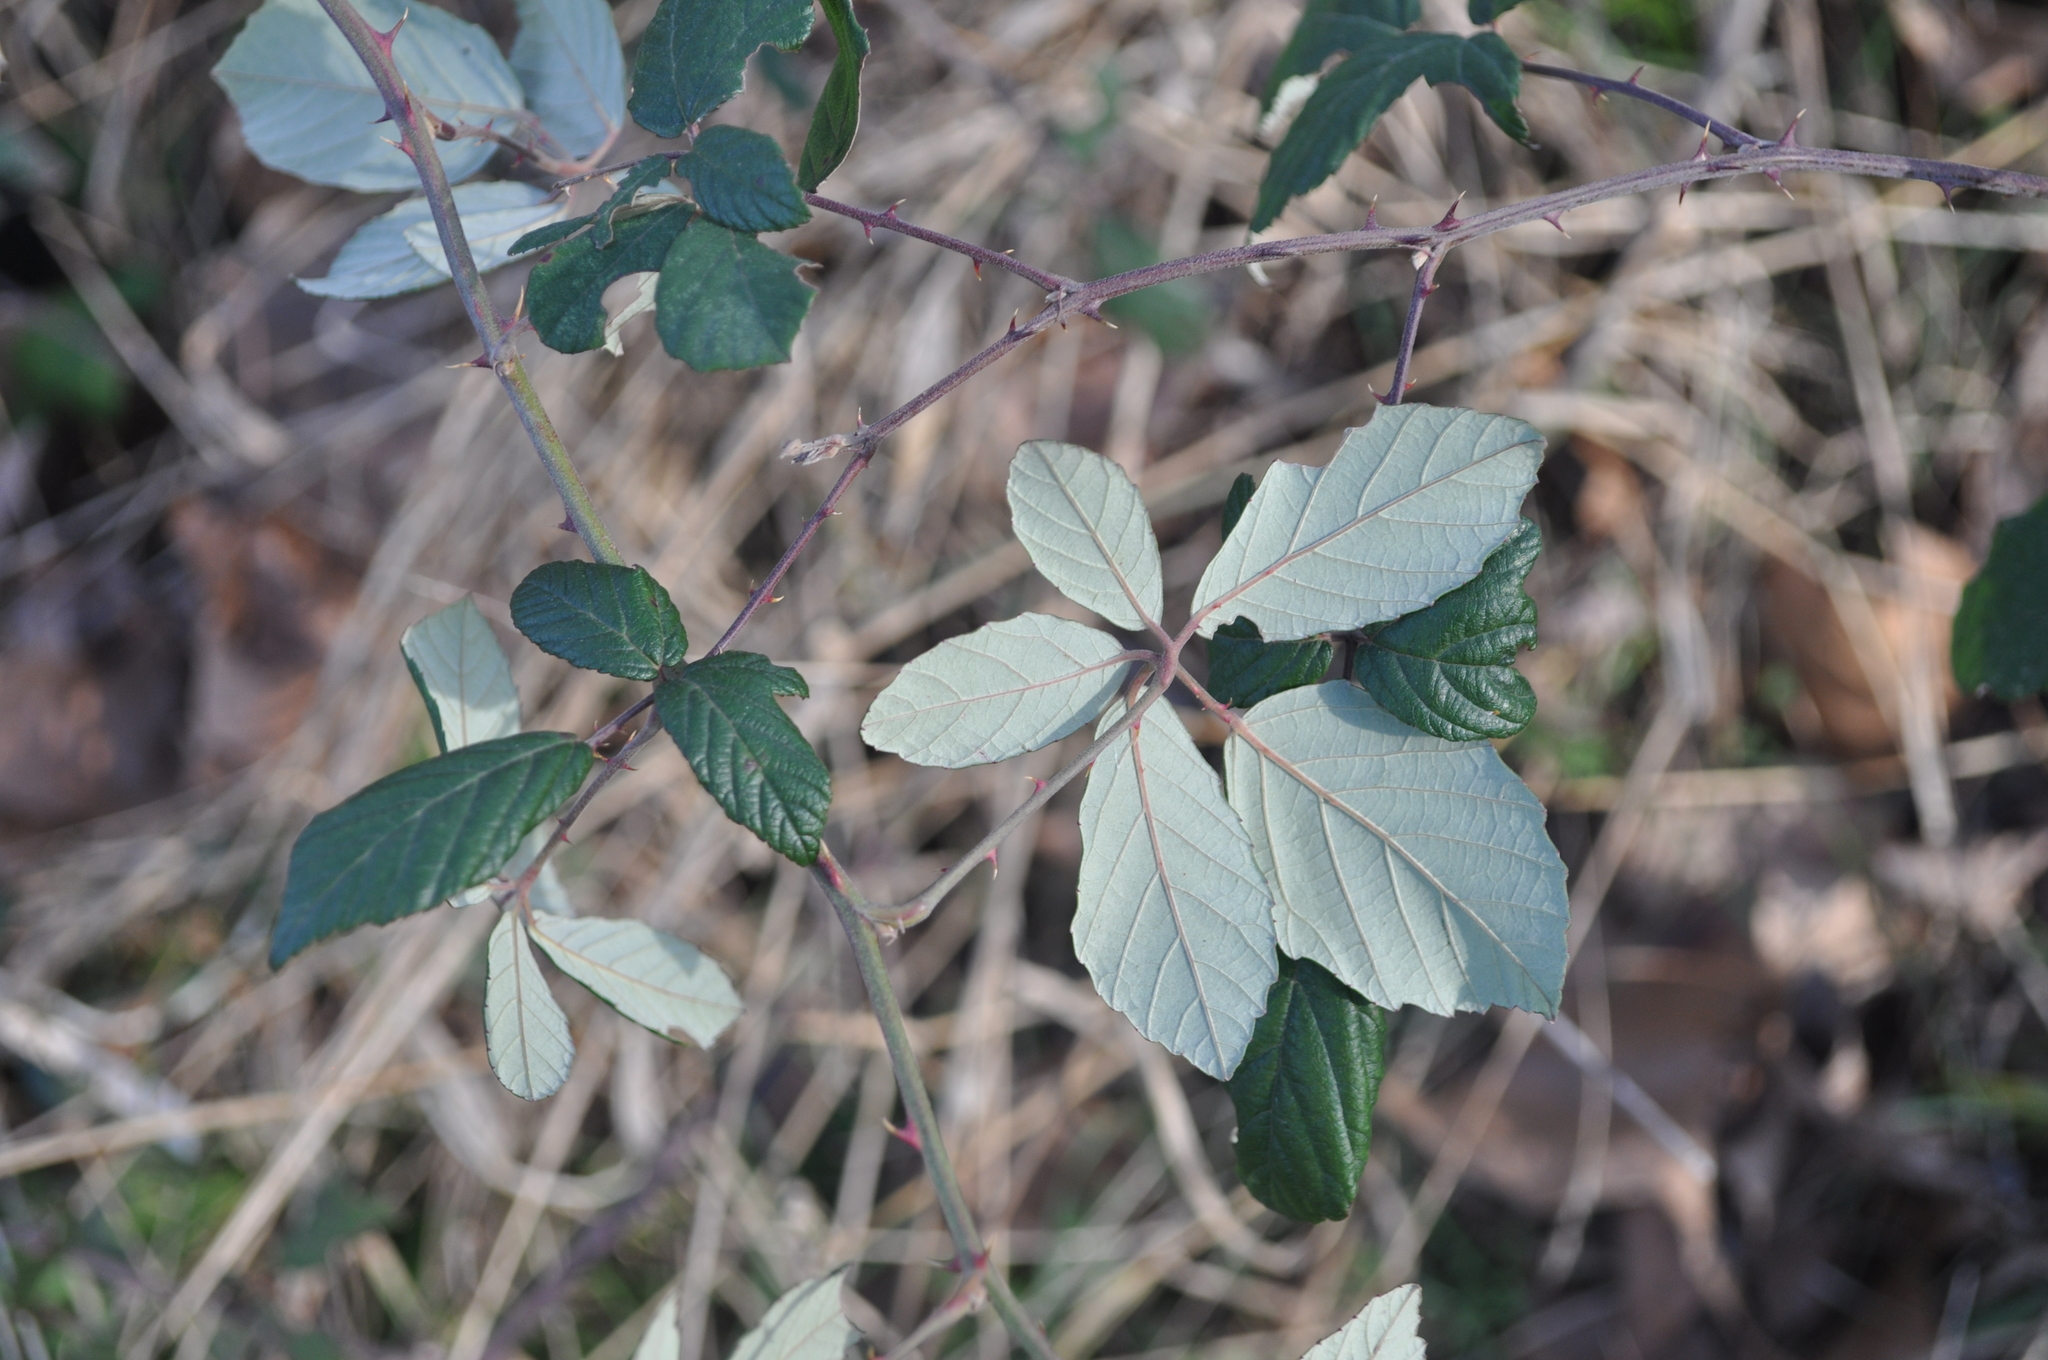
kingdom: Plantae
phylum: Tracheophyta
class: Magnoliopsida
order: Rosales
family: Rosaceae
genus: Rubus
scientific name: Rubus ulmifolius
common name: Elmleaf blackberry
